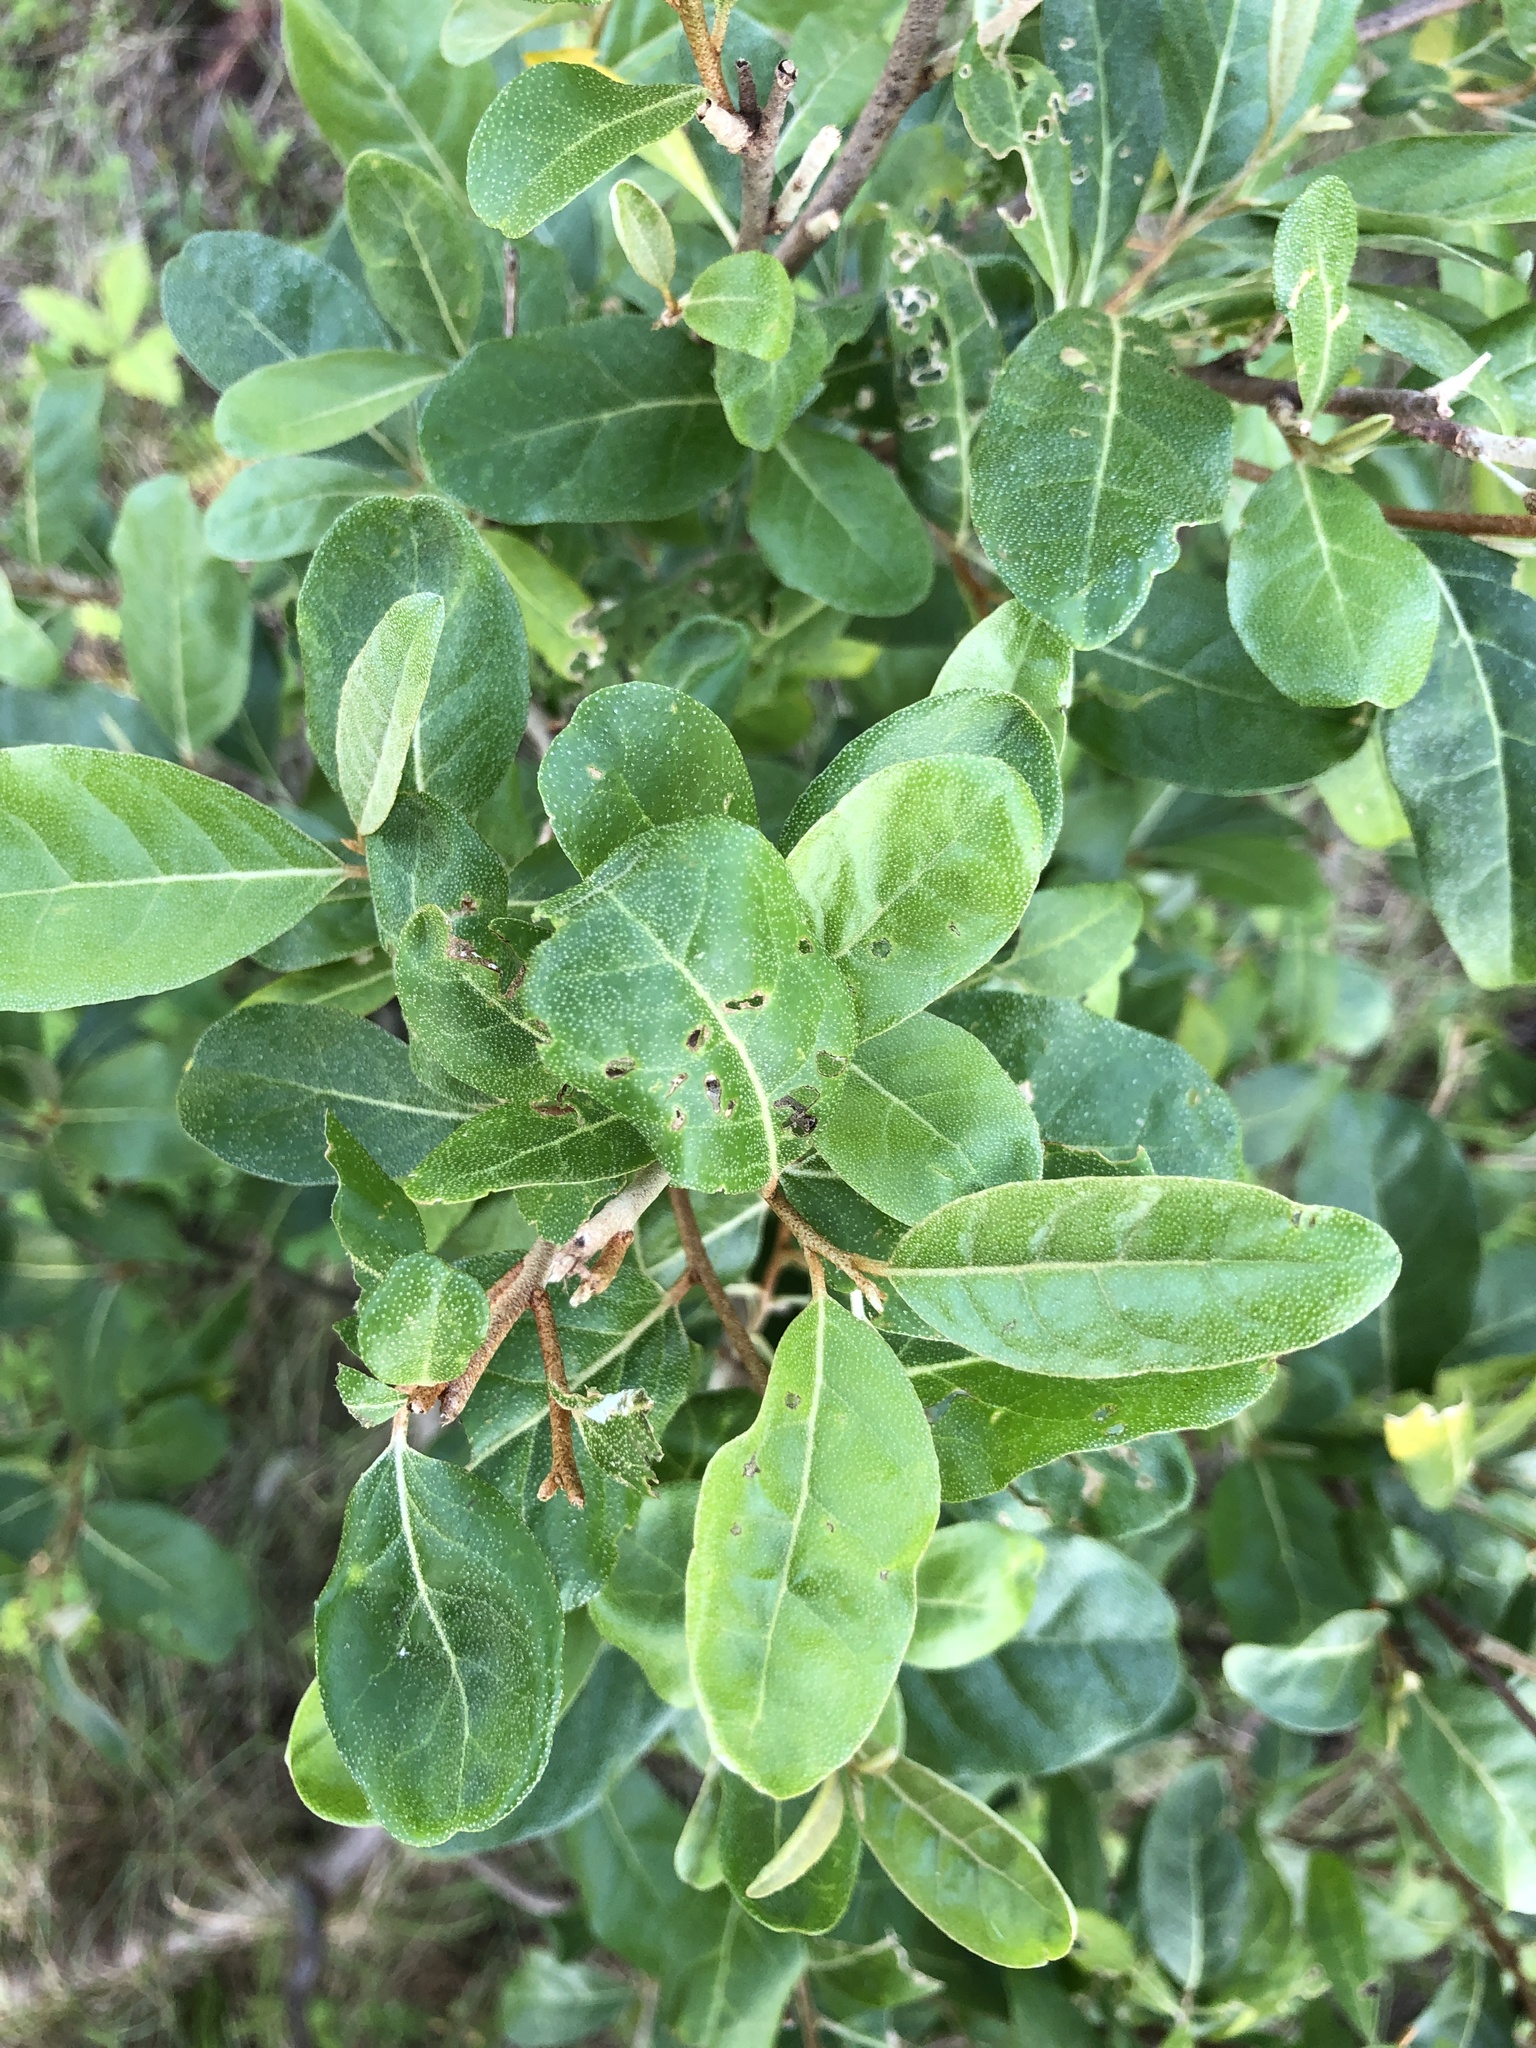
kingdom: Plantae
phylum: Tracheophyta
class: Magnoliopsida
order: Rosales
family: Elaeagnaceae
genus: Elaeagnus
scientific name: Elaeagnus umbellata
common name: Autumn olive
